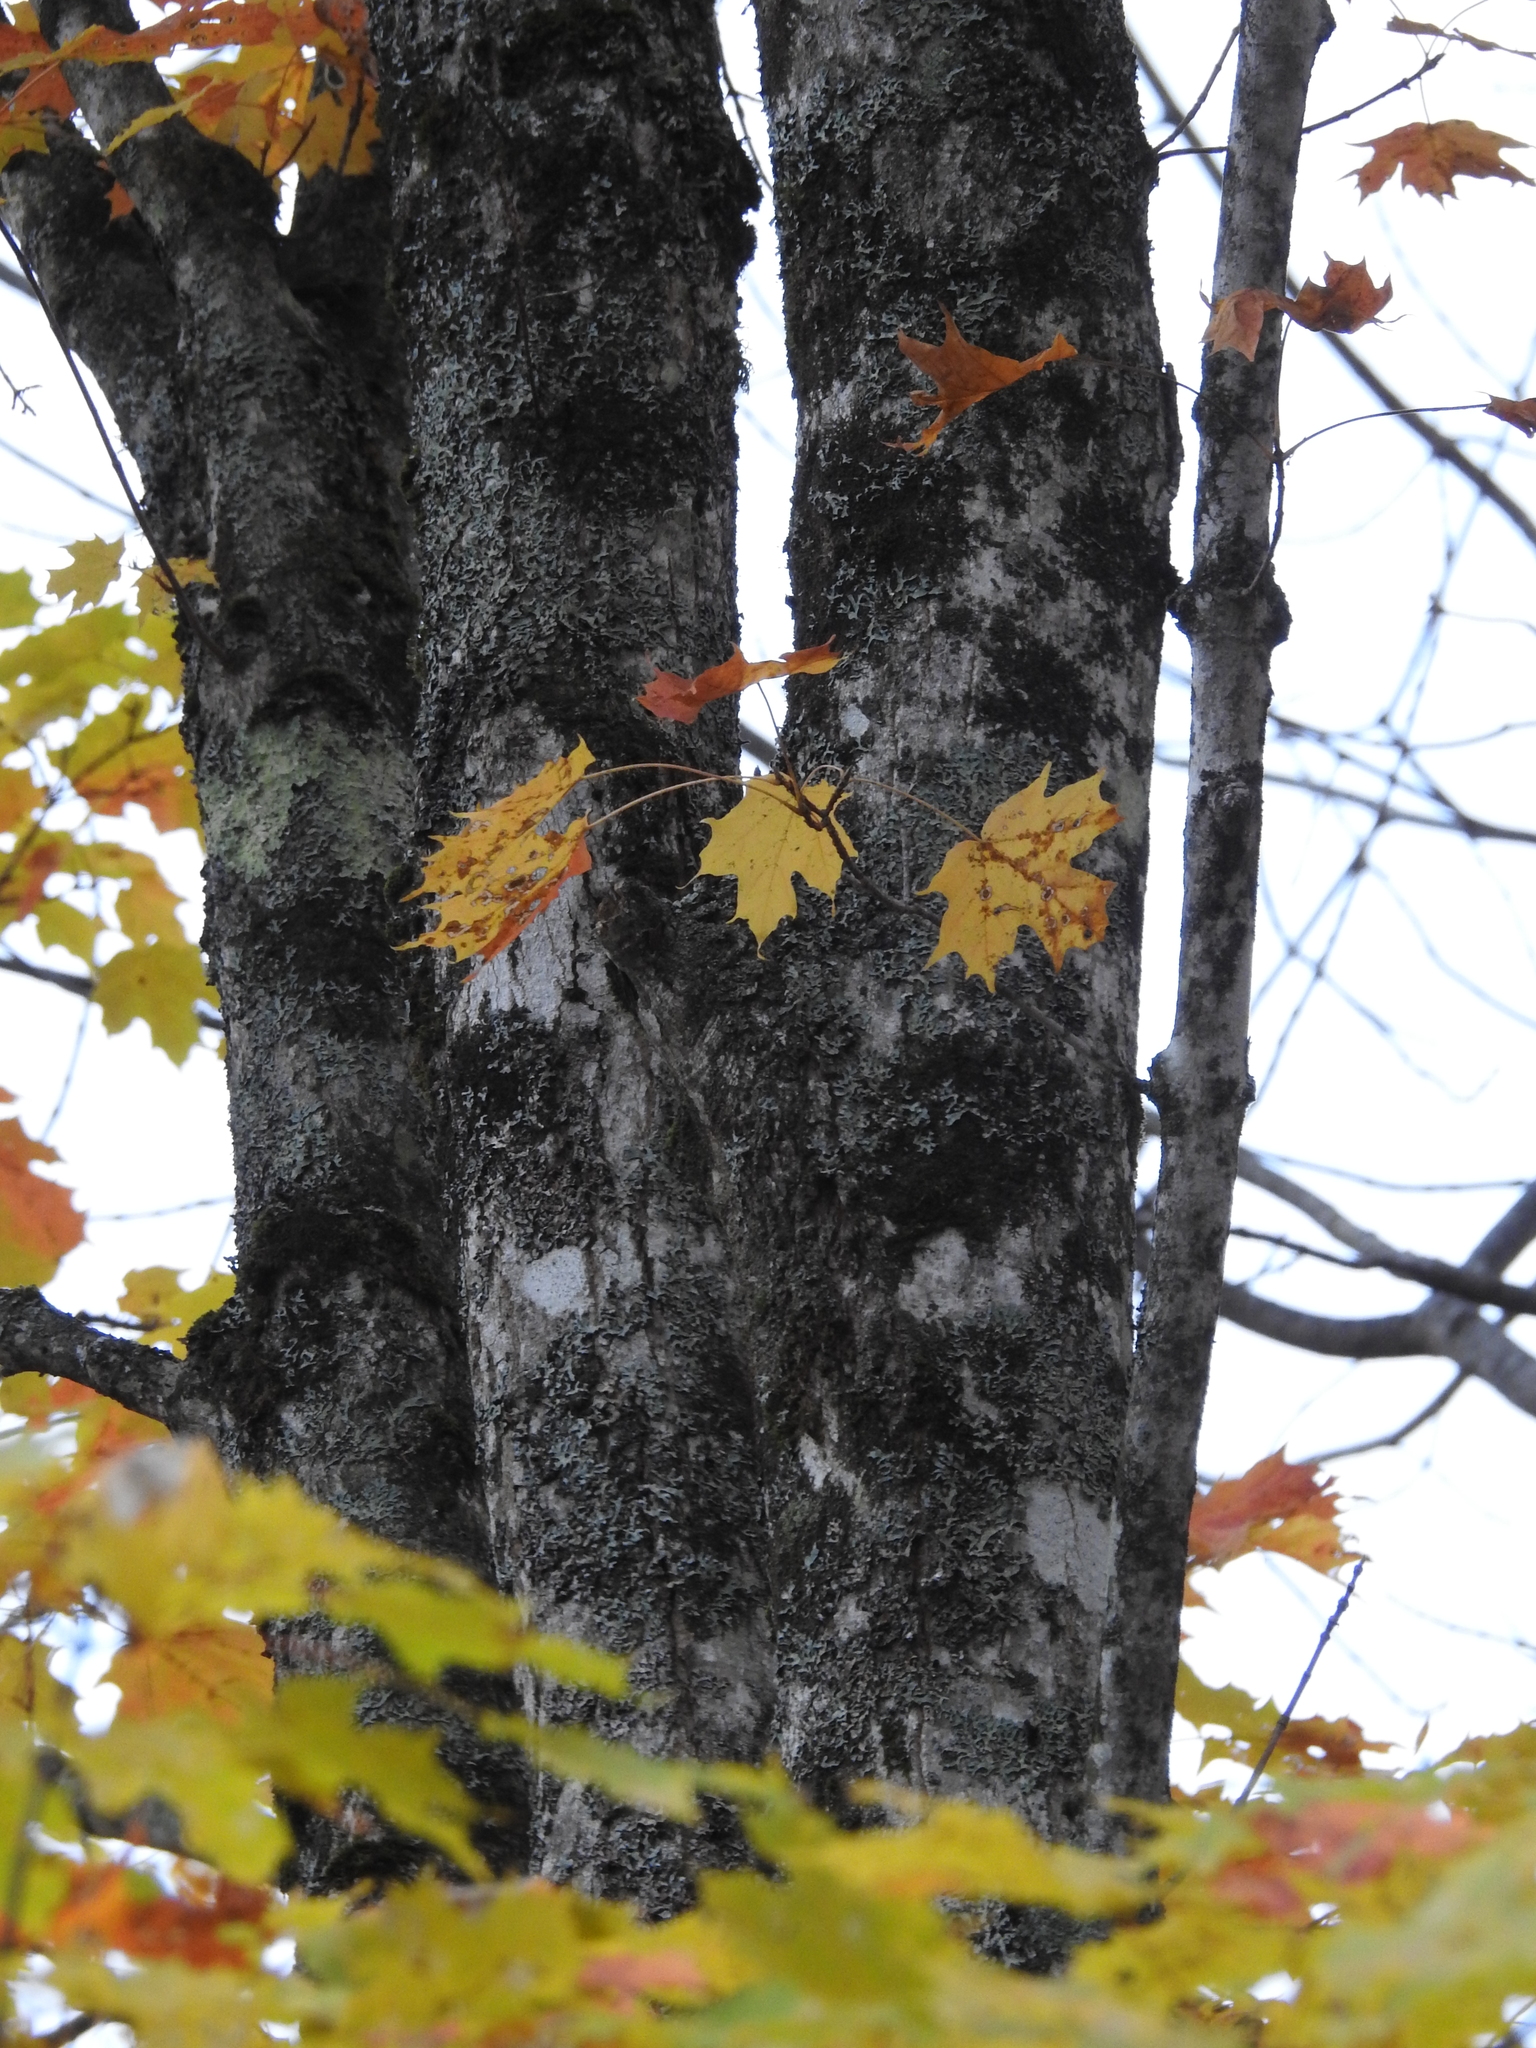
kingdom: Plantae
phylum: Tracheophyta
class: Magnoliopsida
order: Sapindales
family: Sapindaceae
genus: Acer
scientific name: Acer saccharum
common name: Sugar maple
